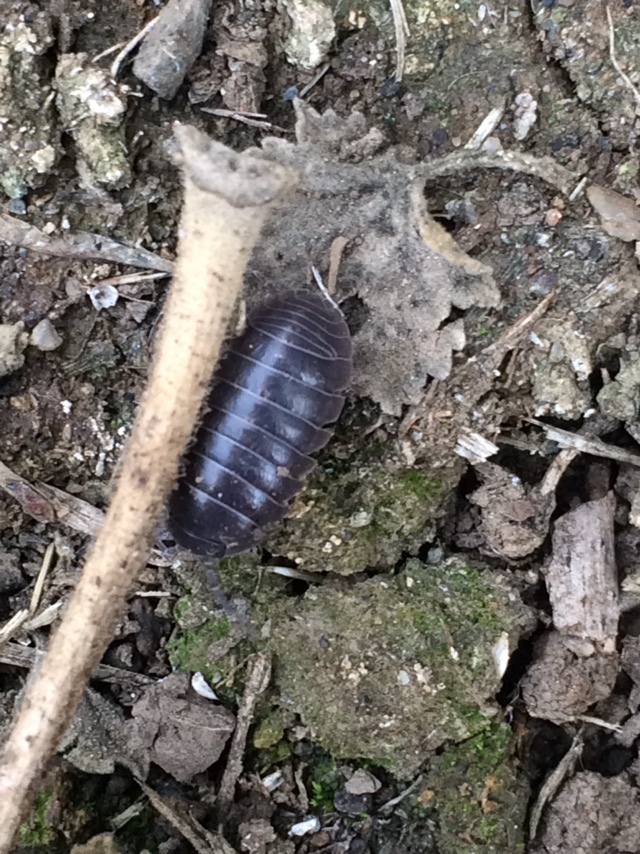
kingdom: Animalia
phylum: Arthropoda
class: Malacostraca
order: Isopoda
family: Armadillidiidae
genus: Armadillidium
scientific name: Armadillidium vulgare
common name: Common pill woodlouse
